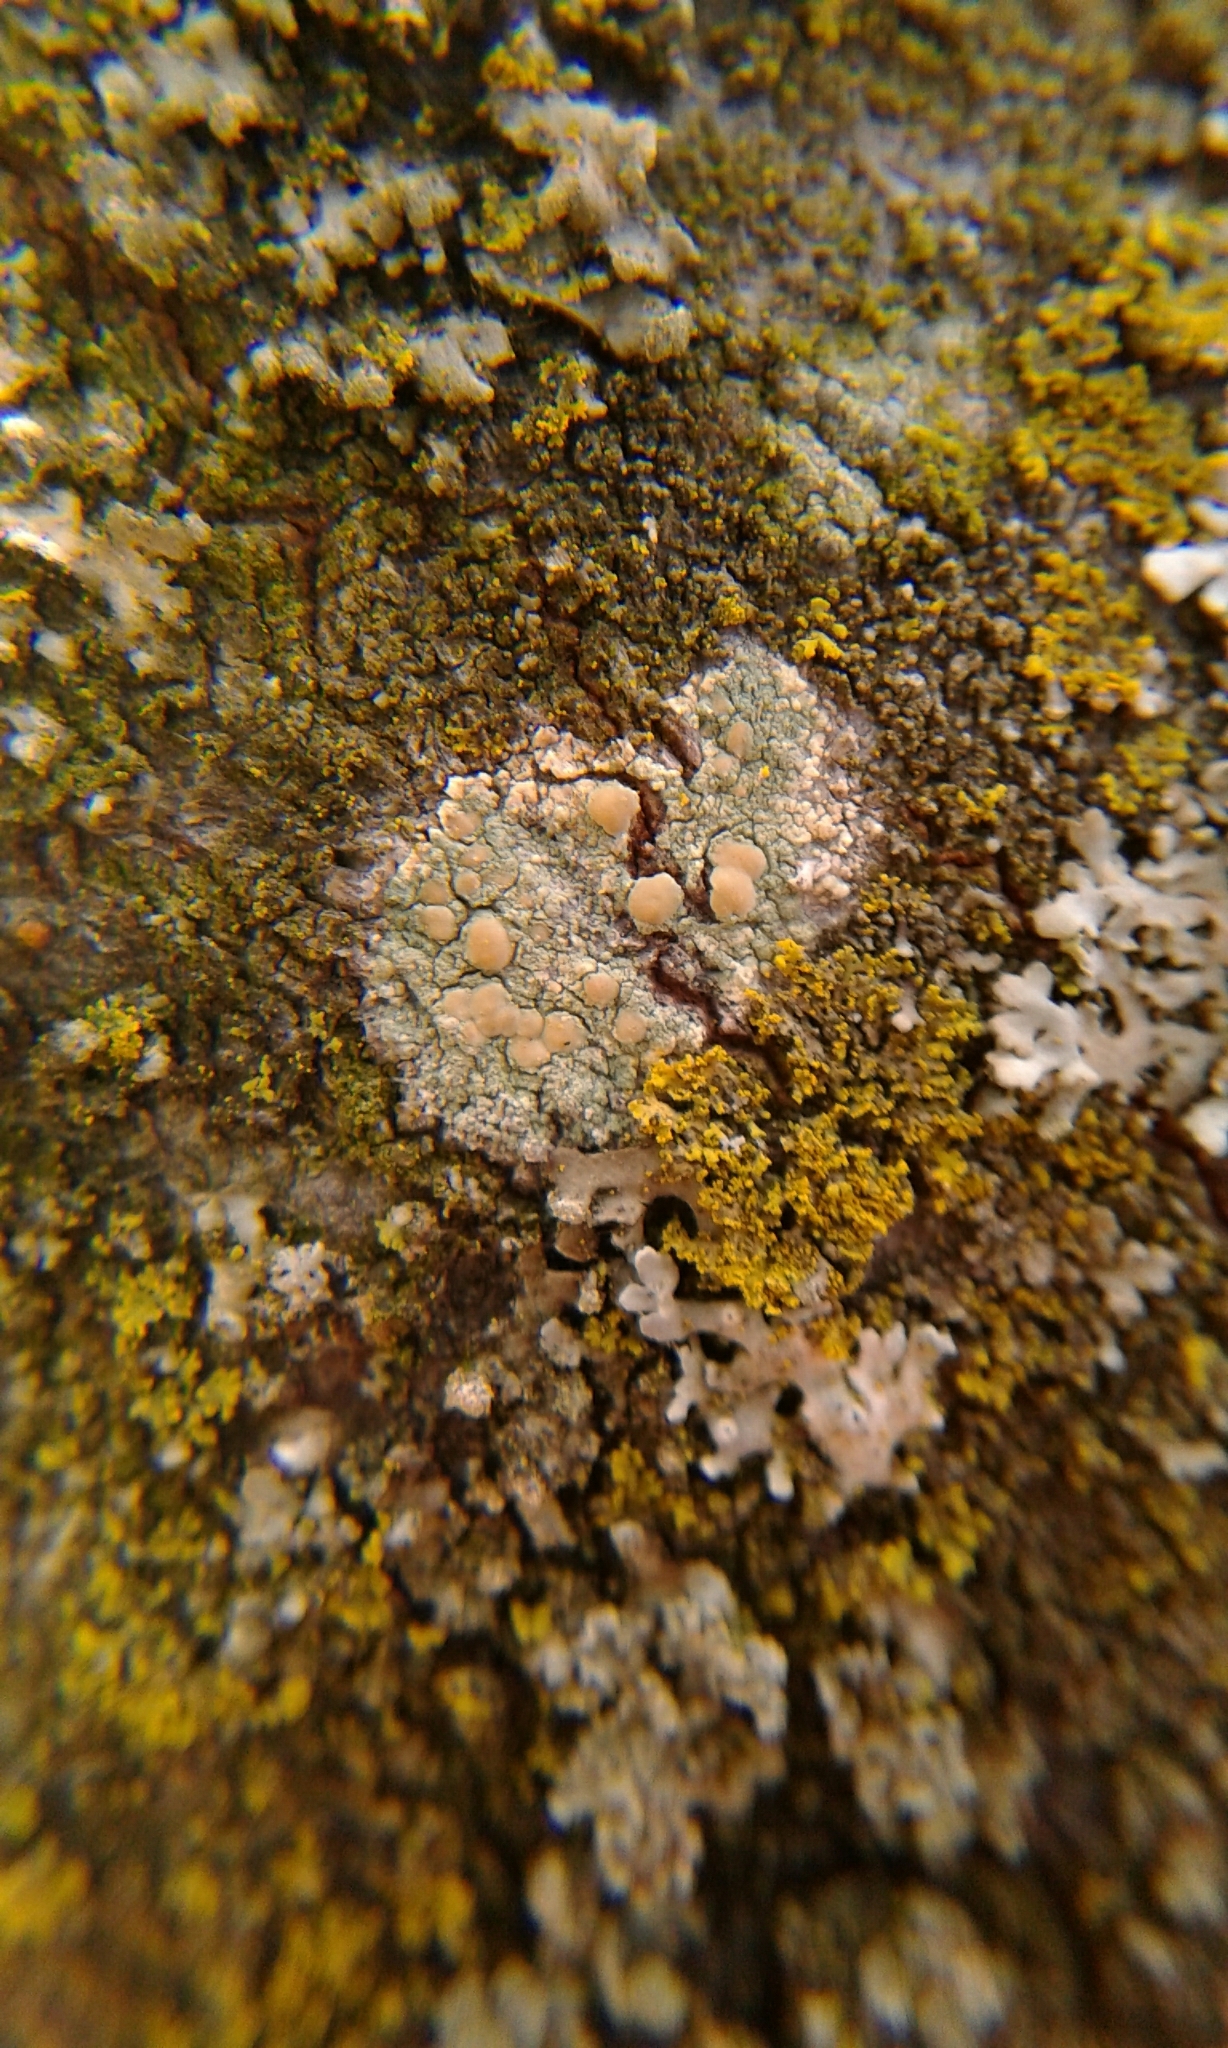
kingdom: Fungi
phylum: Ascomycota
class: Lecanoromycetes
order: Lecanorales
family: Lecanoraceae
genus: Lecanora
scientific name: Lecanora symmicta
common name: Fused rim lichen
